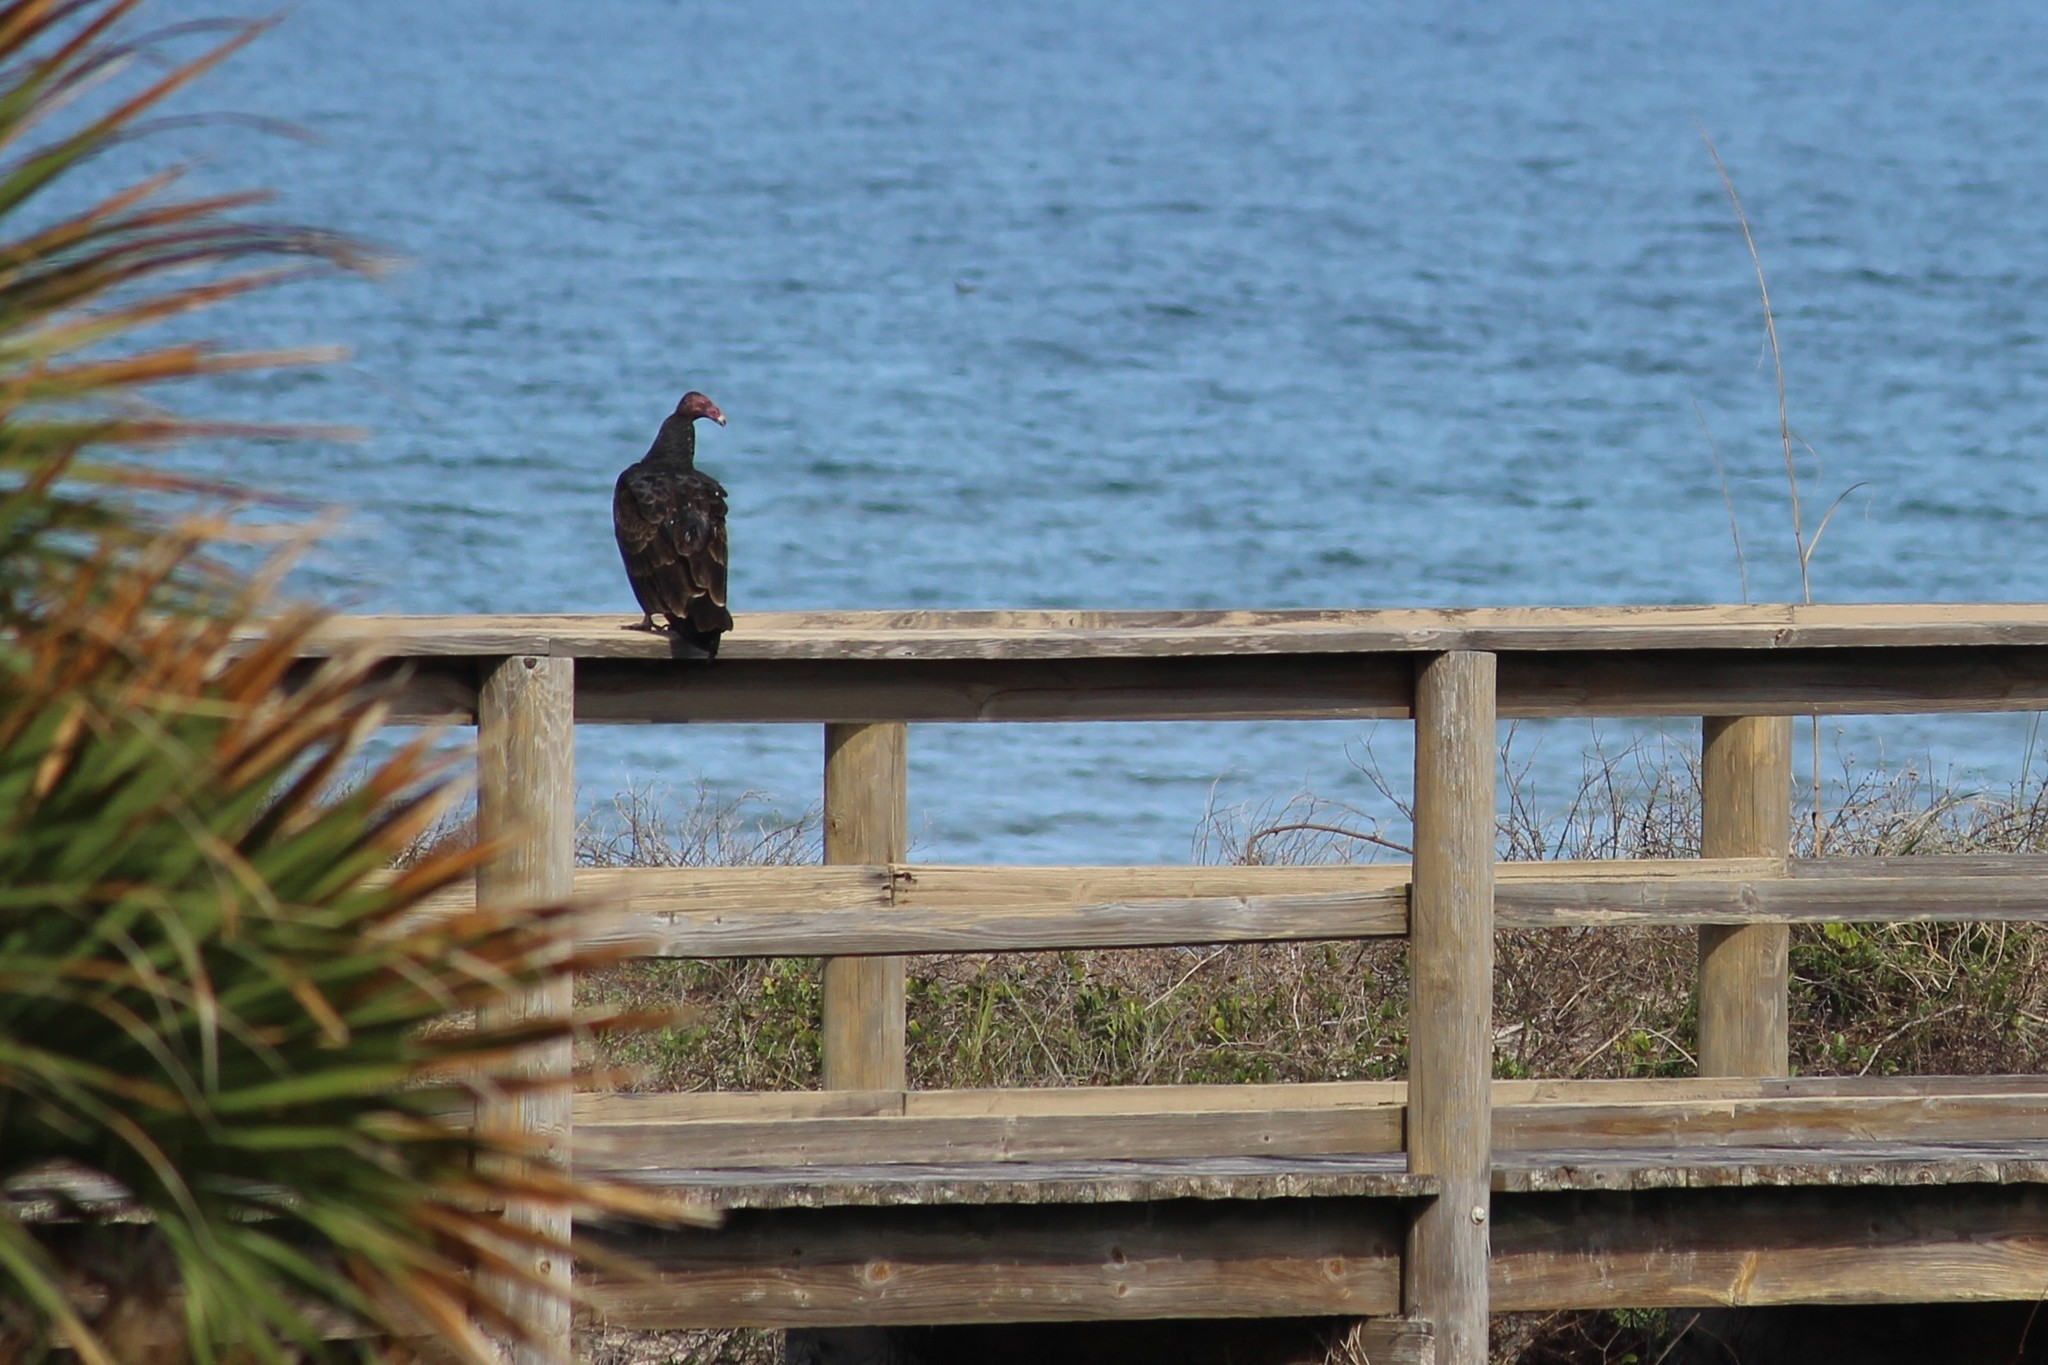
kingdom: Animalia
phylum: Chordata
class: Aves
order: Accipitriformes
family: Cathartidae
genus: Cathartes
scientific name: Cathartes aura
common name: Turkey vulture
